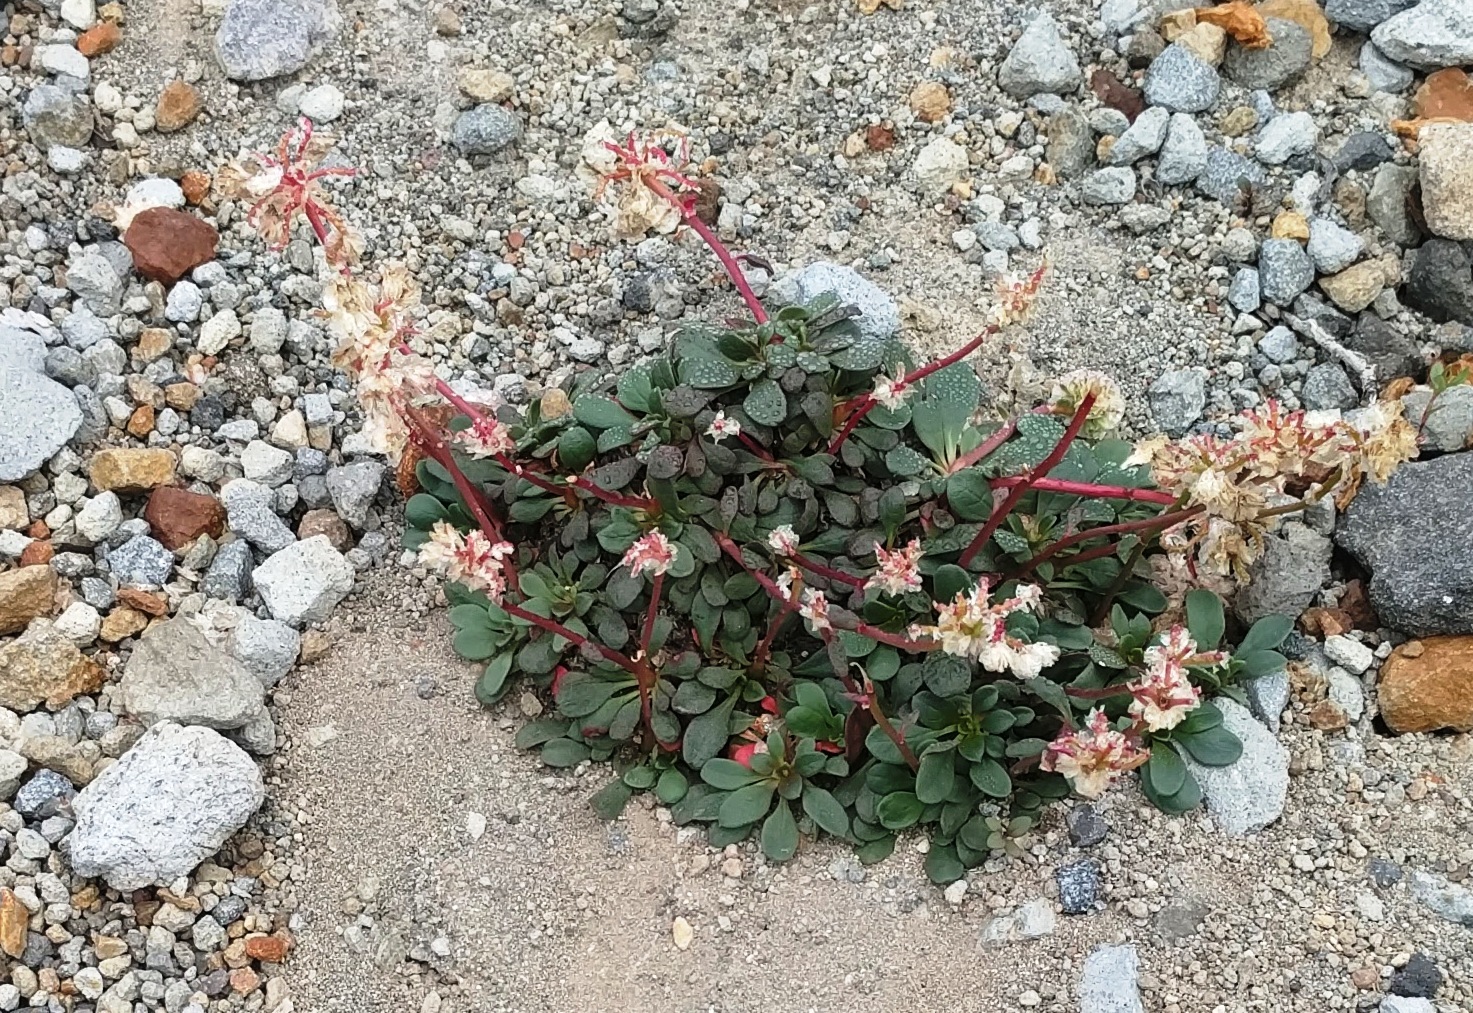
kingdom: Plantae
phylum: Tracheophyta
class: Magnoliopsida
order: Caryophyllales
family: Montiaceae
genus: Calyptridium
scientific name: Calyptridium umbellatum
